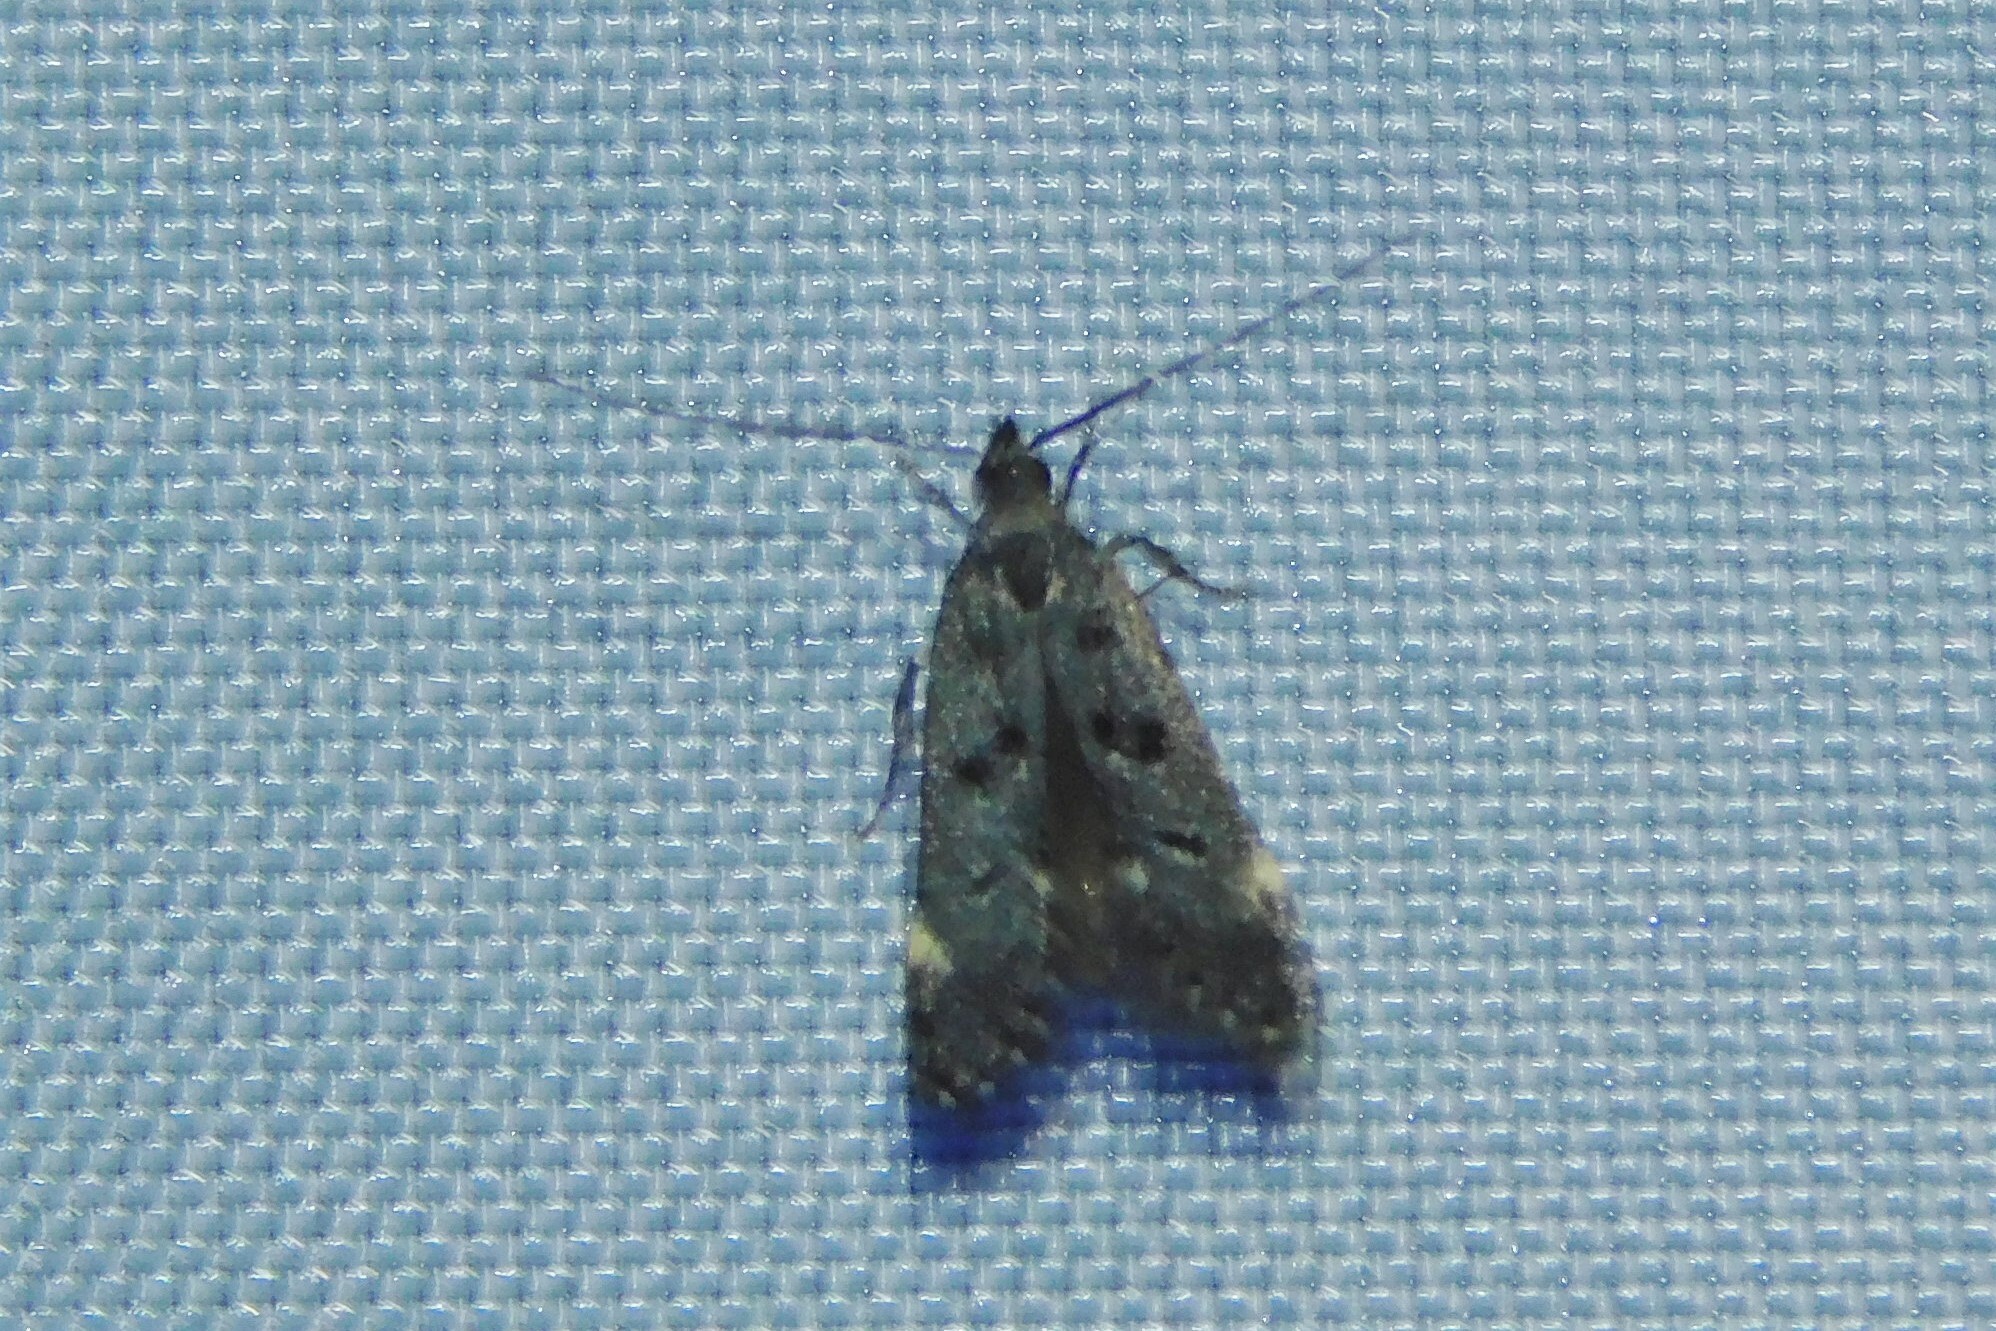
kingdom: Animalia
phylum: Arthropoda
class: Insecta
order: Lepidoptera
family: Gelechiidae
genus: Acanthophila
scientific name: Acanthophila alacella
